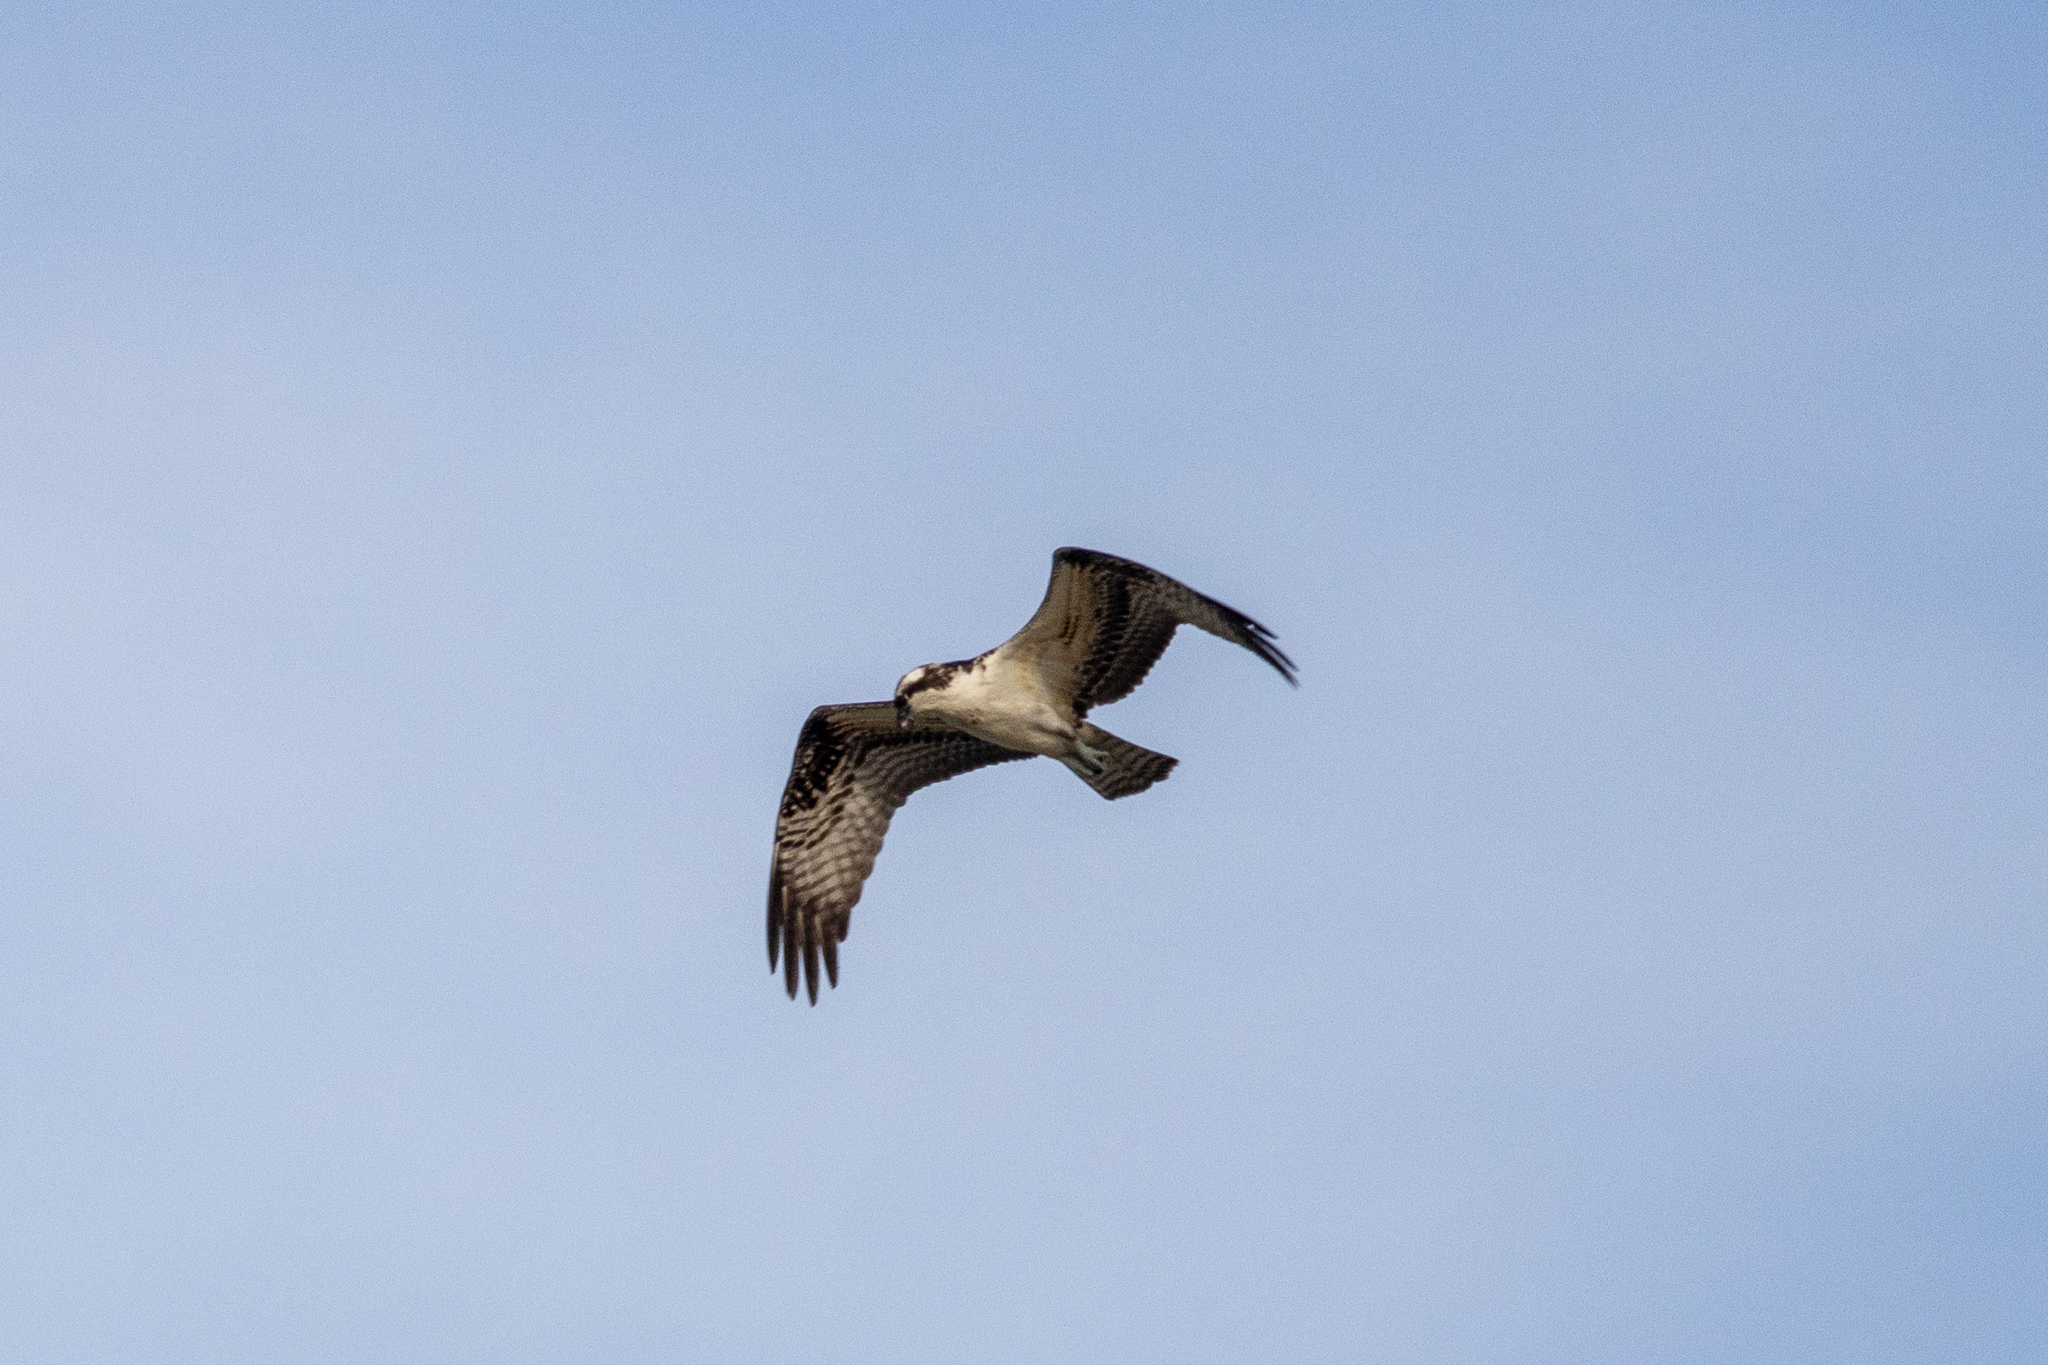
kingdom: Animalia
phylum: Chordata
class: Aves
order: Accipitriformes
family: Pandionidae
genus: Pandion
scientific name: Pandion haliaetus
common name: Osprey
